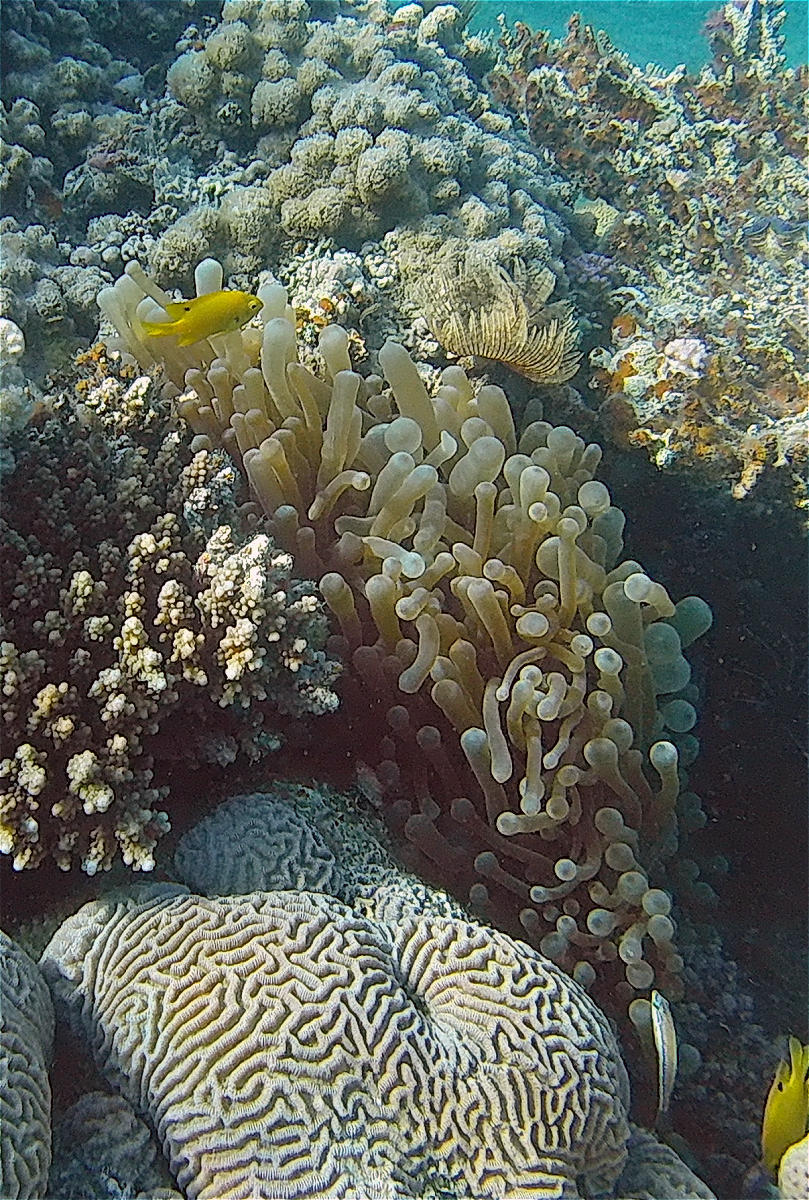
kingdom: Animalia
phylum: Cnidaria
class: Anthozoa
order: Actiniaria
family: Actiniidae
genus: Entacmaea
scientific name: Entacmaea quadricolor
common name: Bulb tentacle sea anemone
